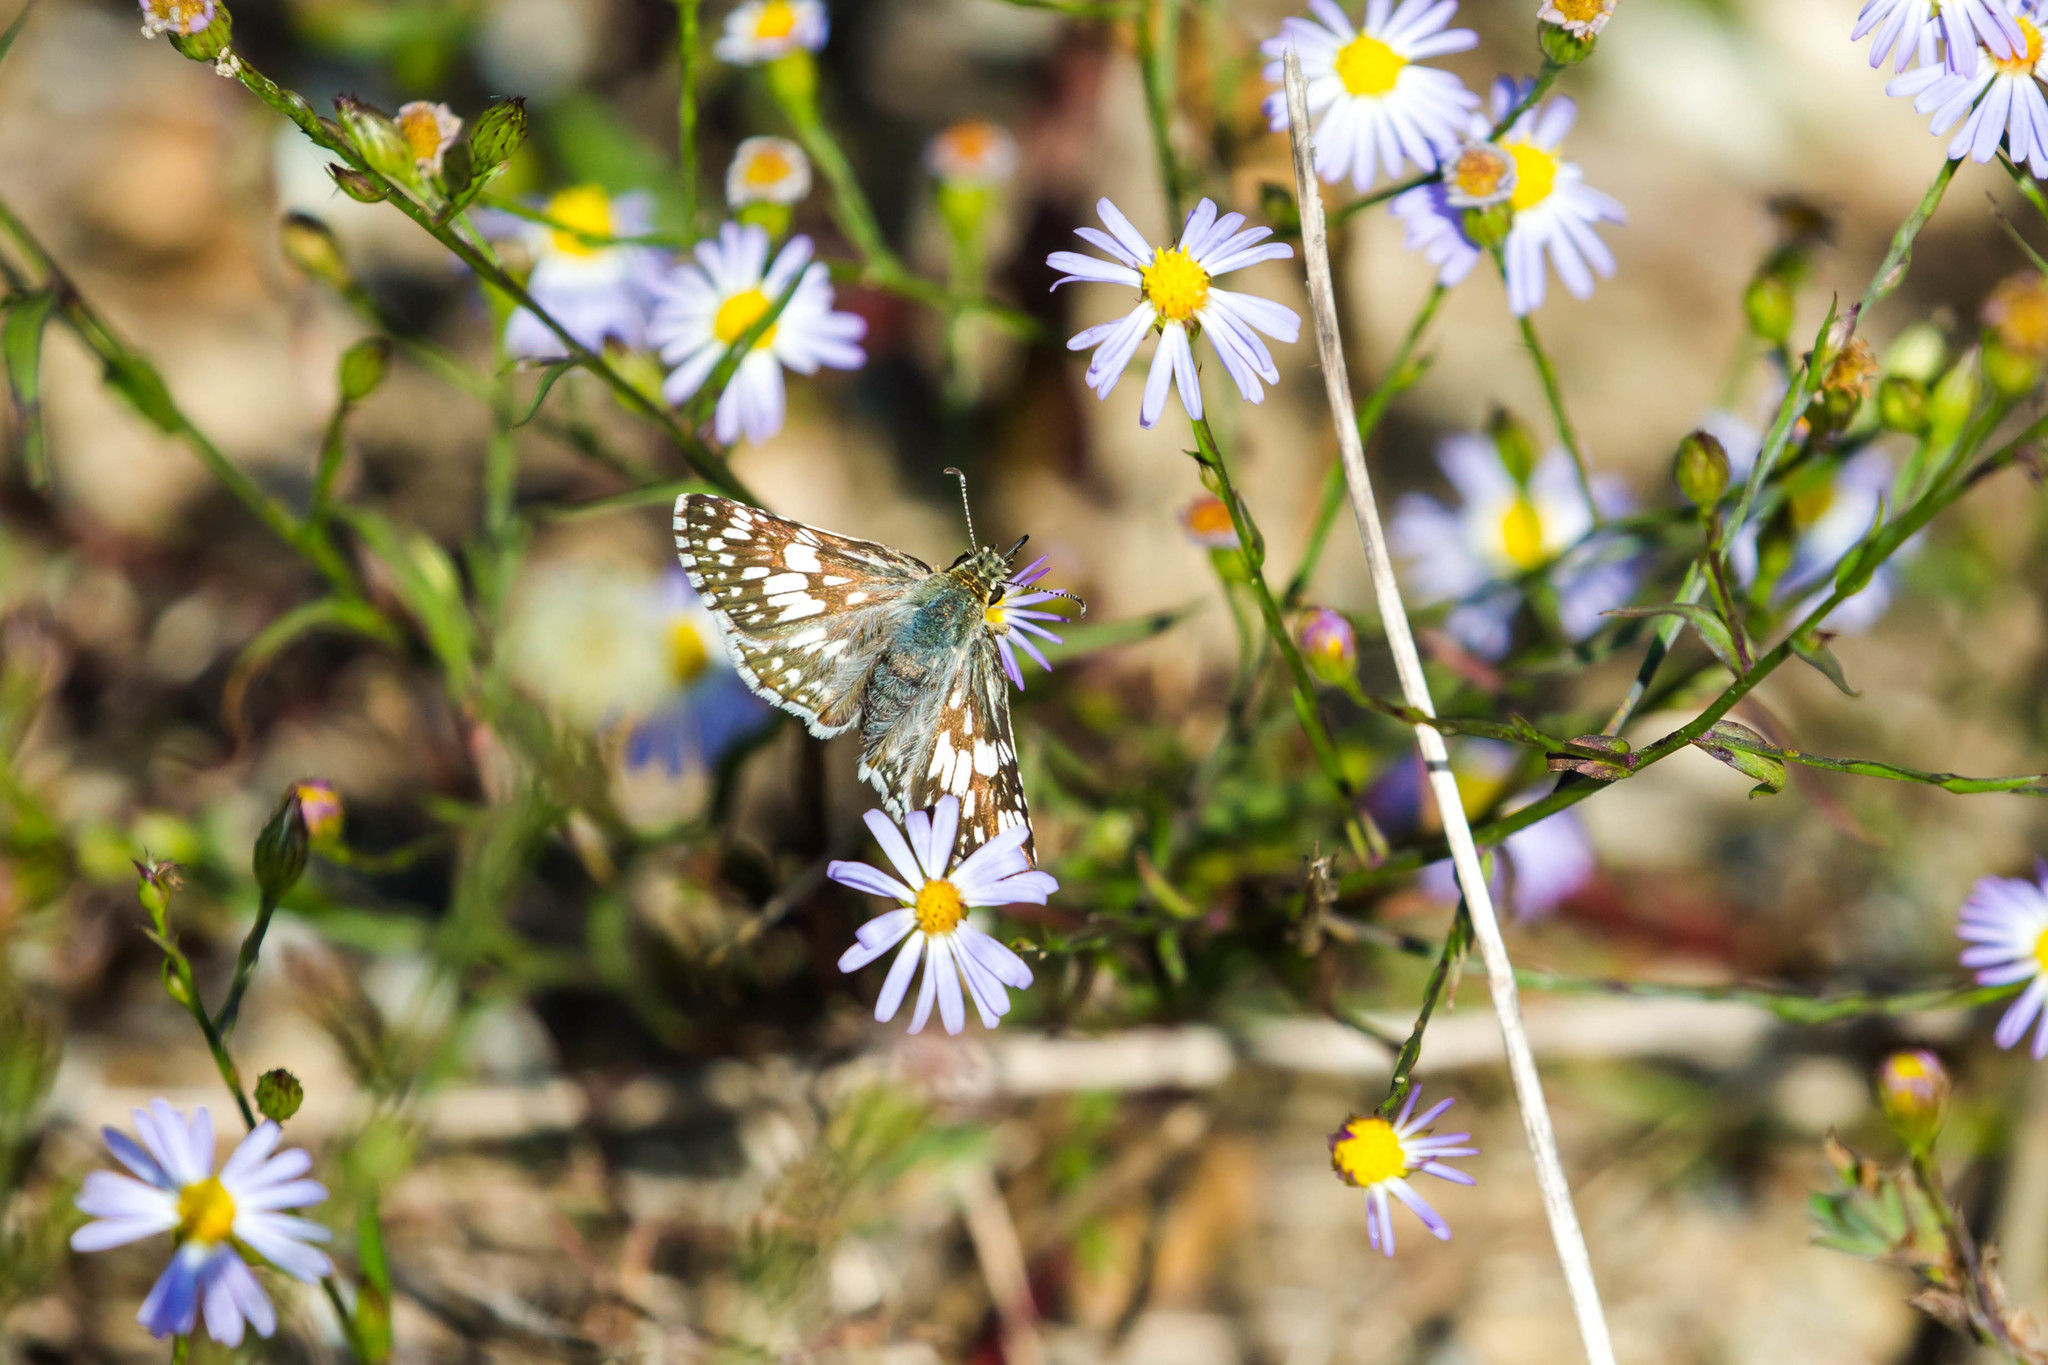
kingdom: Animalia
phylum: Arthropoda
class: Insecta
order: Lepidoptera
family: Hesperiidae
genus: Burnsius
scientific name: Burnsius communis
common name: Common checkered-skipper
